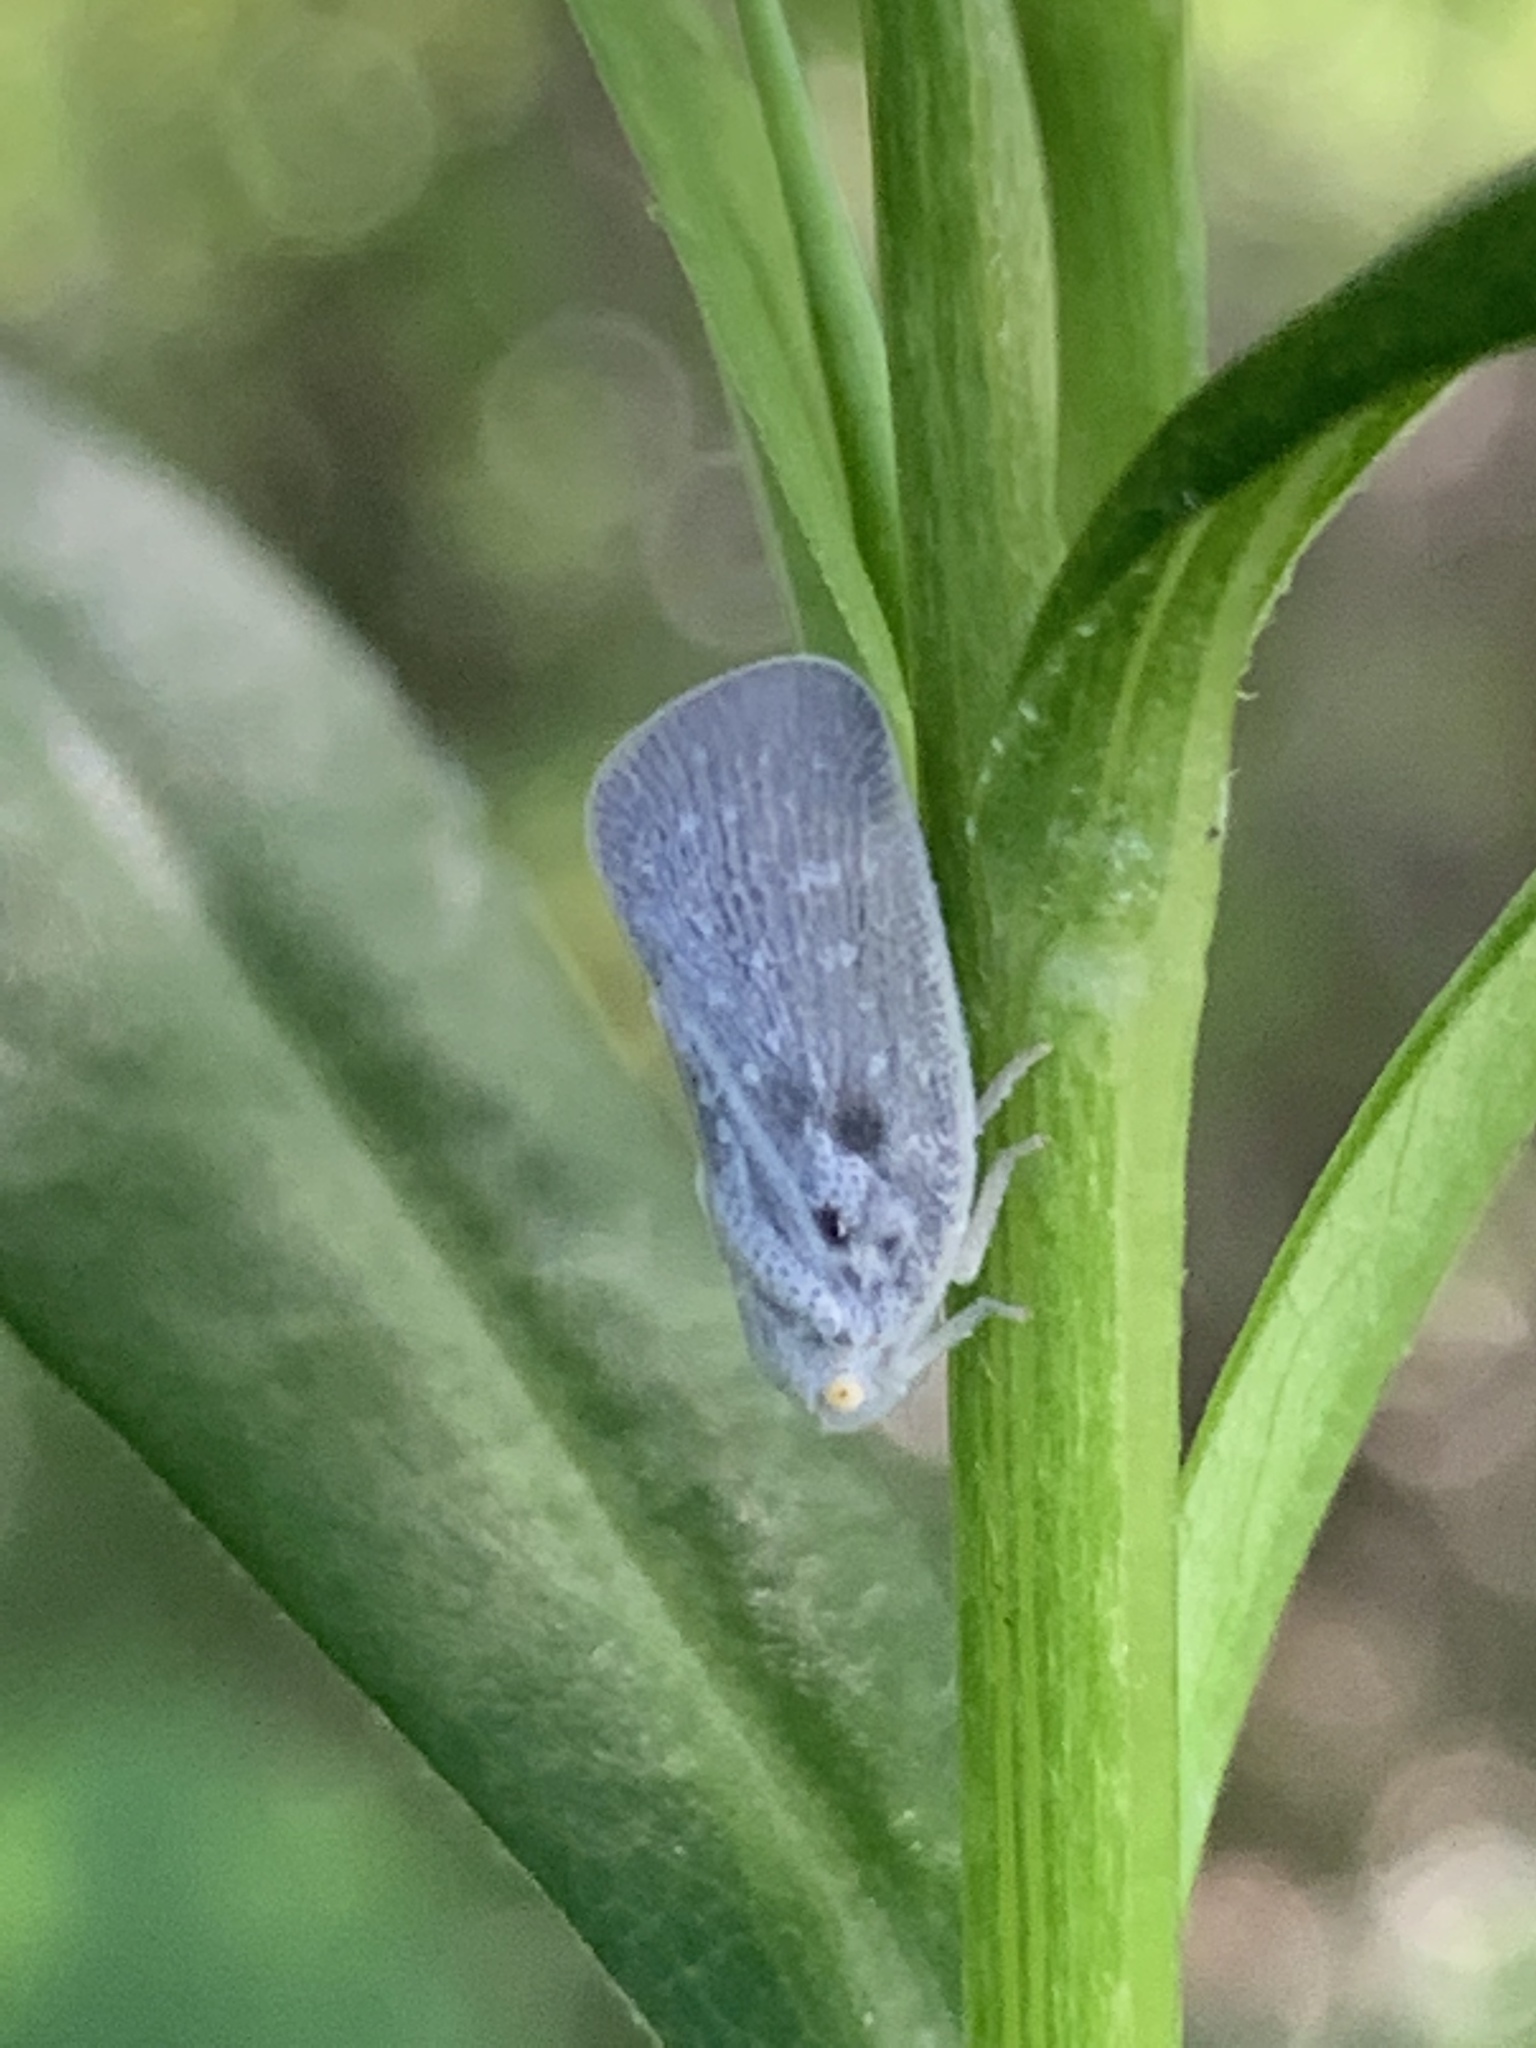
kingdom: Animalia
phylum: Arthropoda
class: Insecta
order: Hemiptera
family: Flatidae
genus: Metcalfa
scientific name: Metcalfa pruinosa
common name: Citrus flatid planthopper
